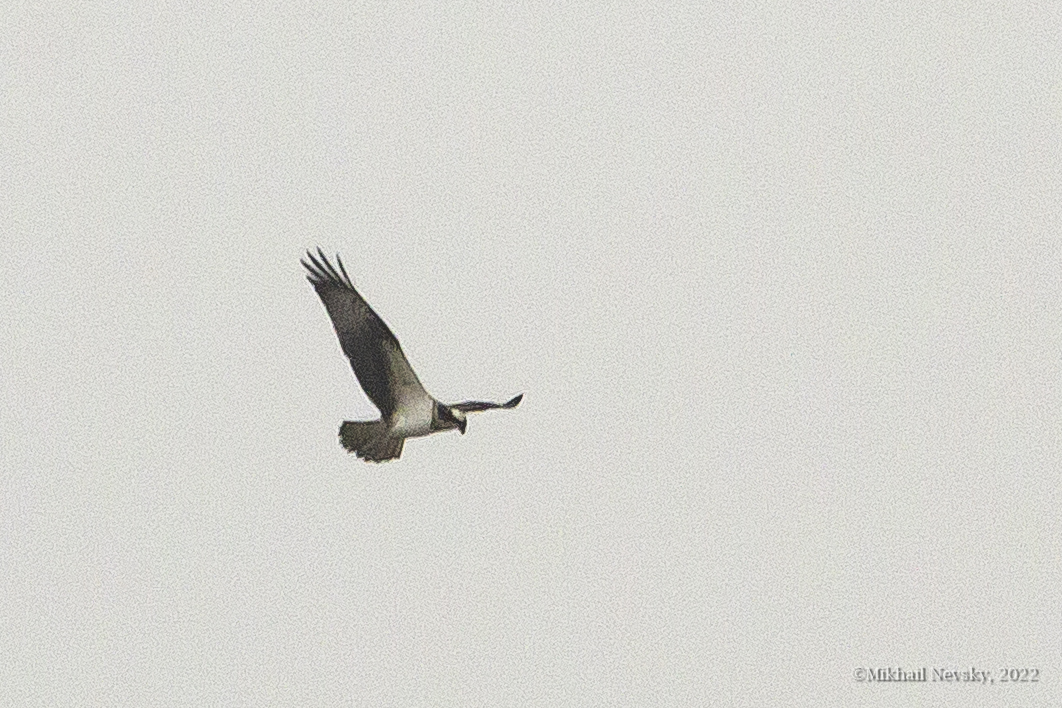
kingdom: Animalia
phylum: Chordata
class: Aves
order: Accipitriformes
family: Pandionidae
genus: Pandion
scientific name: Pandion haliaetus
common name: Osprey
